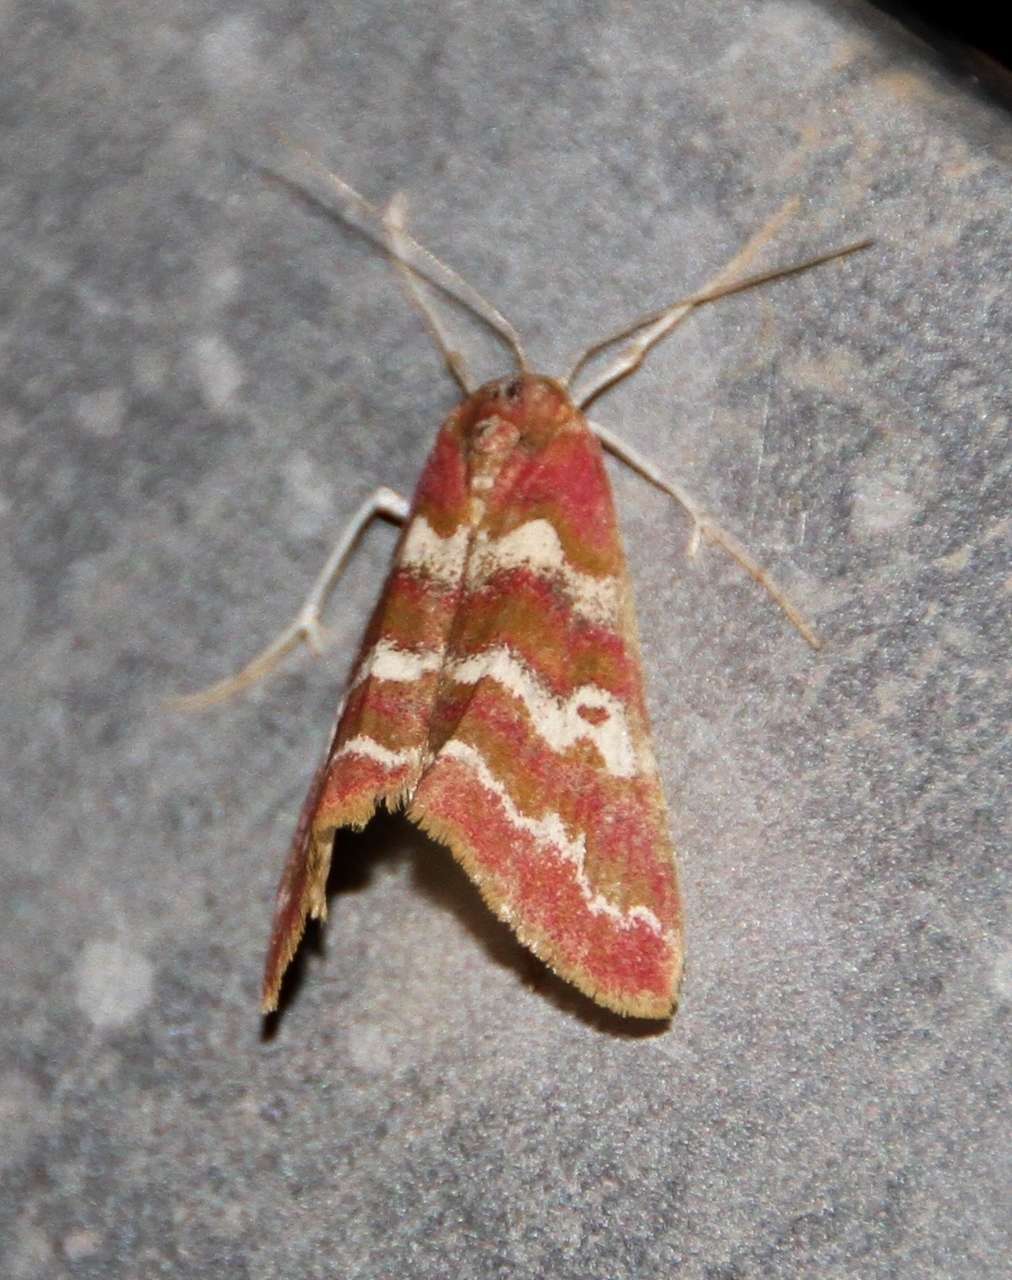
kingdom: Animalia
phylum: Arthropoda
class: Insecta
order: Lepidoptera
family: Geometridae
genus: Notiosterrha
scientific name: Notiosterrha aglaodesma
